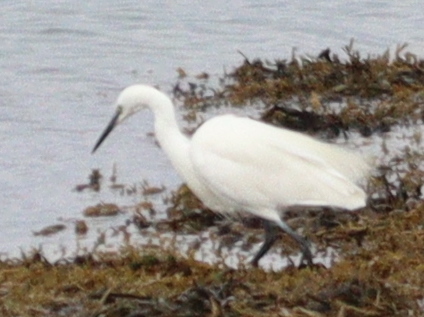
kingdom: Animalia
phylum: Chordata
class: Aves
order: Pelecaniformes
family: Ardeidae
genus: Egretta
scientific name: Egretta garzetta
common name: Little egret
